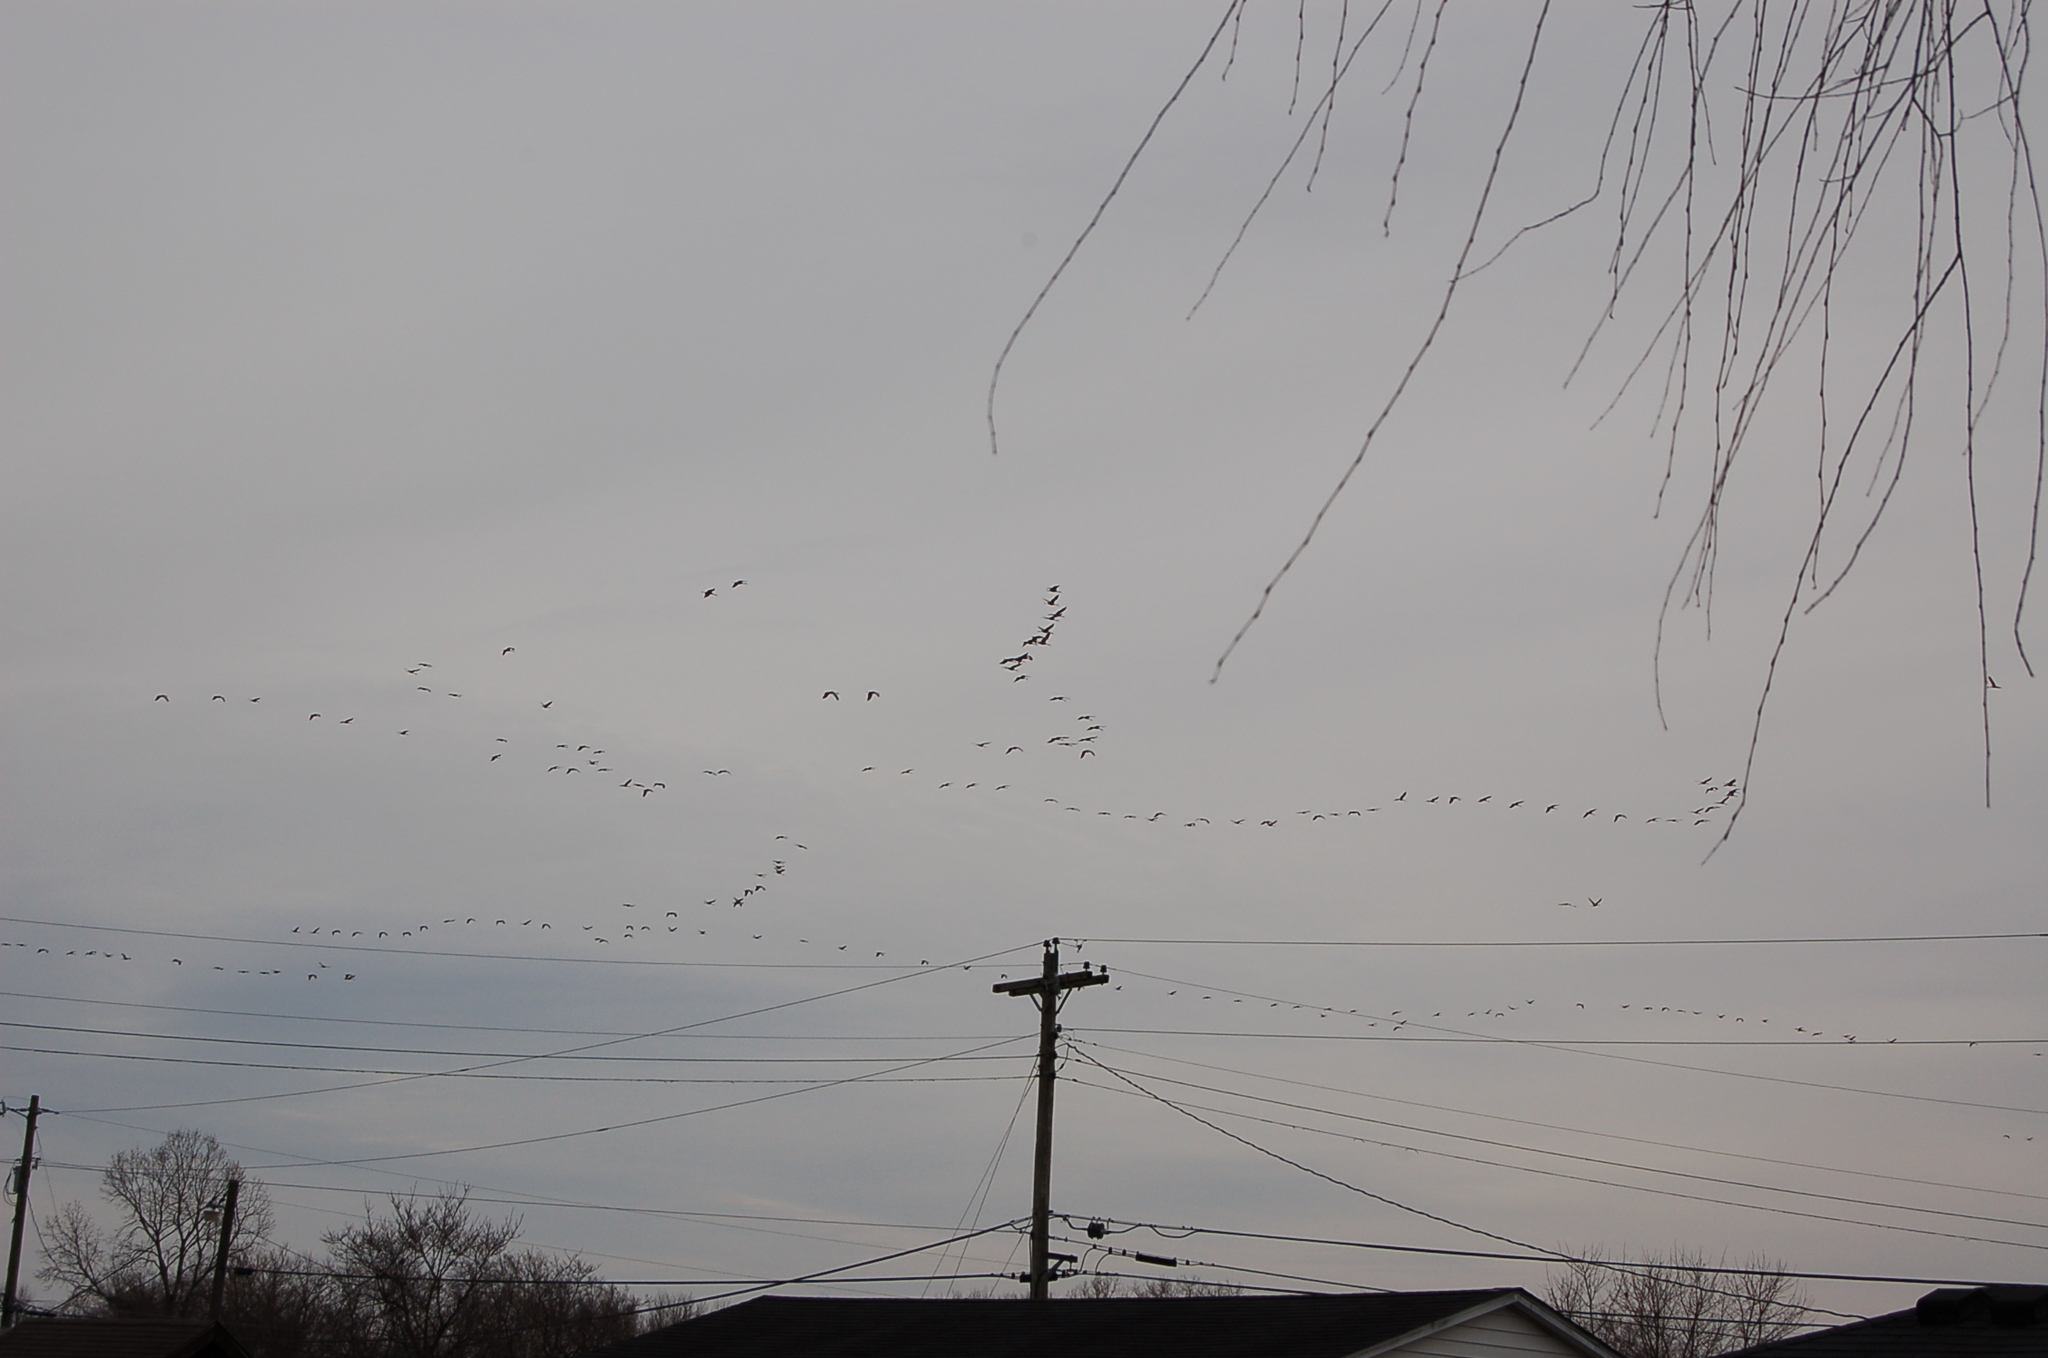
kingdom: Animalia
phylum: Chordata
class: Aves
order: Gruiformes
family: Gruidae
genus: Grus
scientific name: Grus canadensis
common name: Sandhill crane
